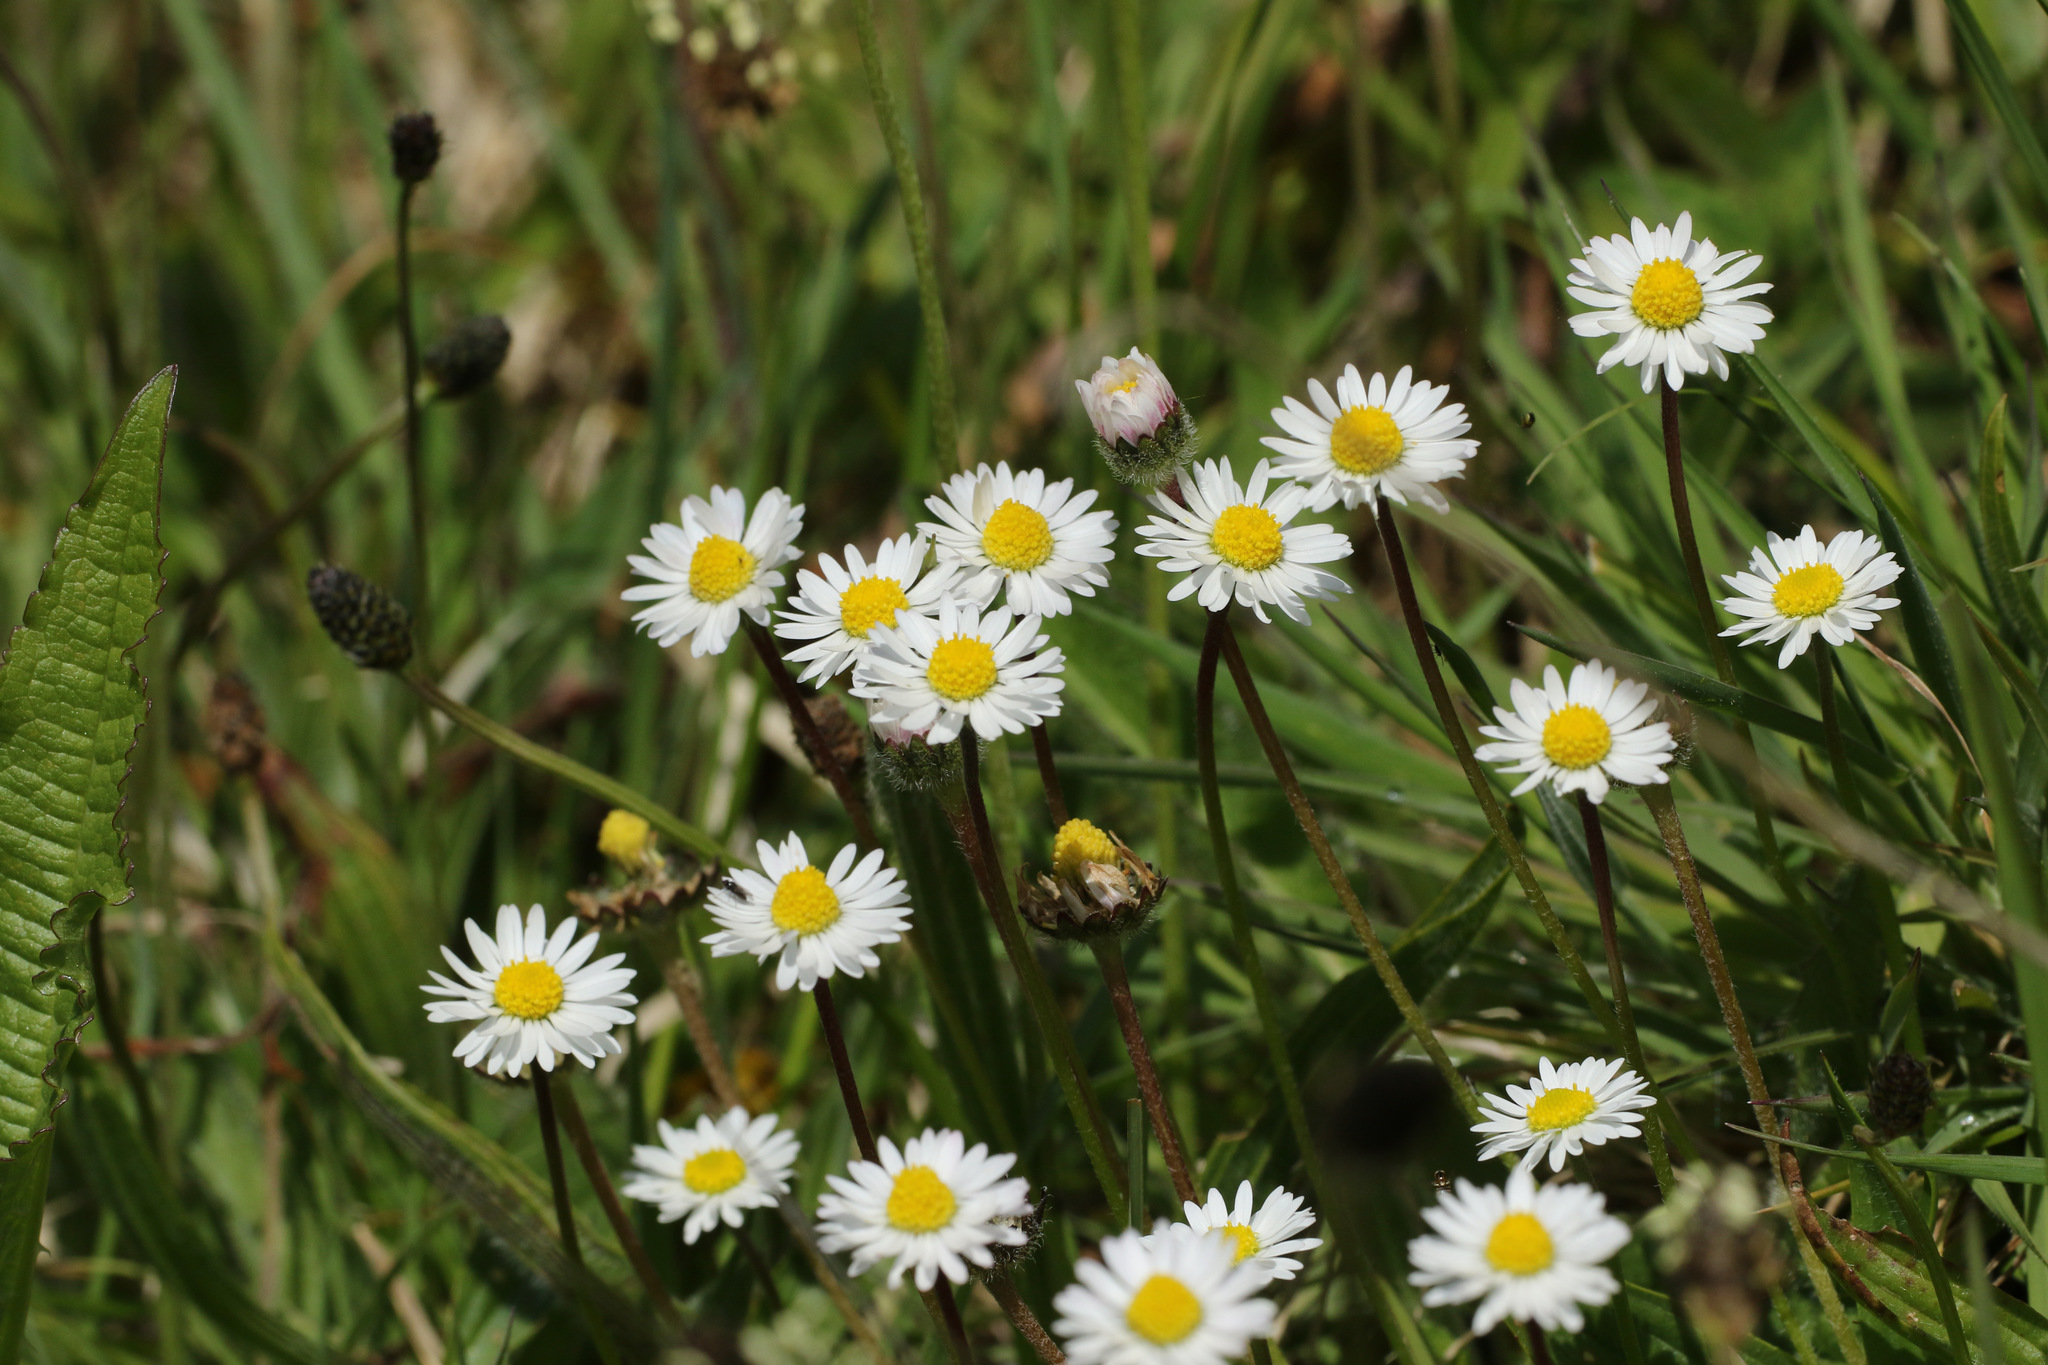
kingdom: Plantae
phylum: Tracheophyta
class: Magnoliopsida
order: Asterales
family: Asteraceae
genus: Bellis
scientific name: Bellis perennis
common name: Lawndaisy
